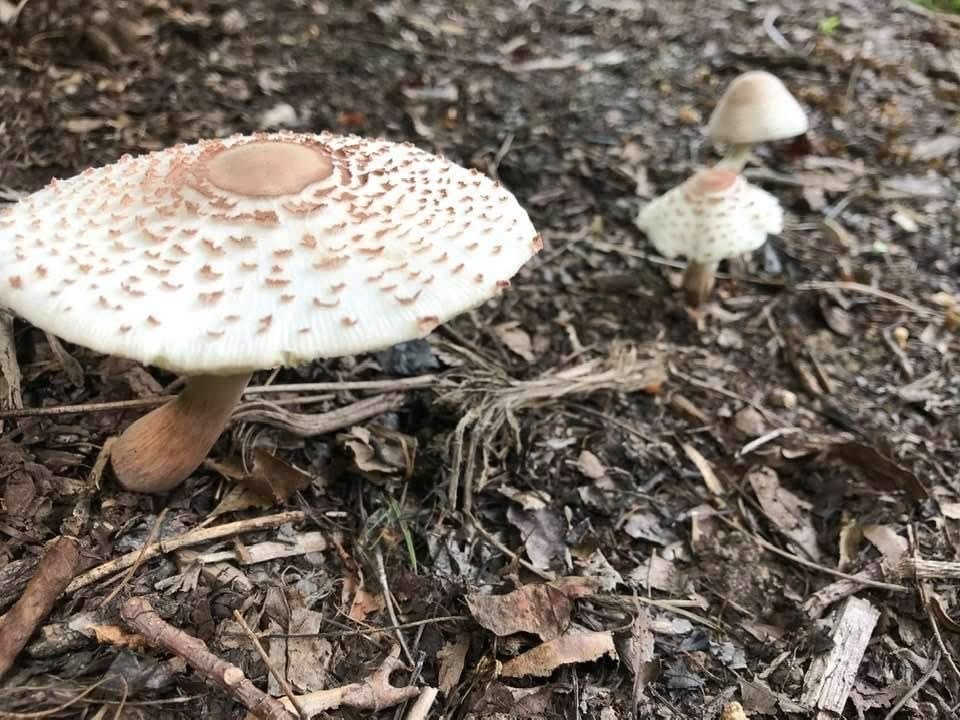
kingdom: Fungi
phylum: Basidiomycota
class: Agaricomycetes
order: Agaricales
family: Agaricaceae
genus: Leucoagaricus
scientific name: Leucoagaricus americanus
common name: Reddening lepiota
